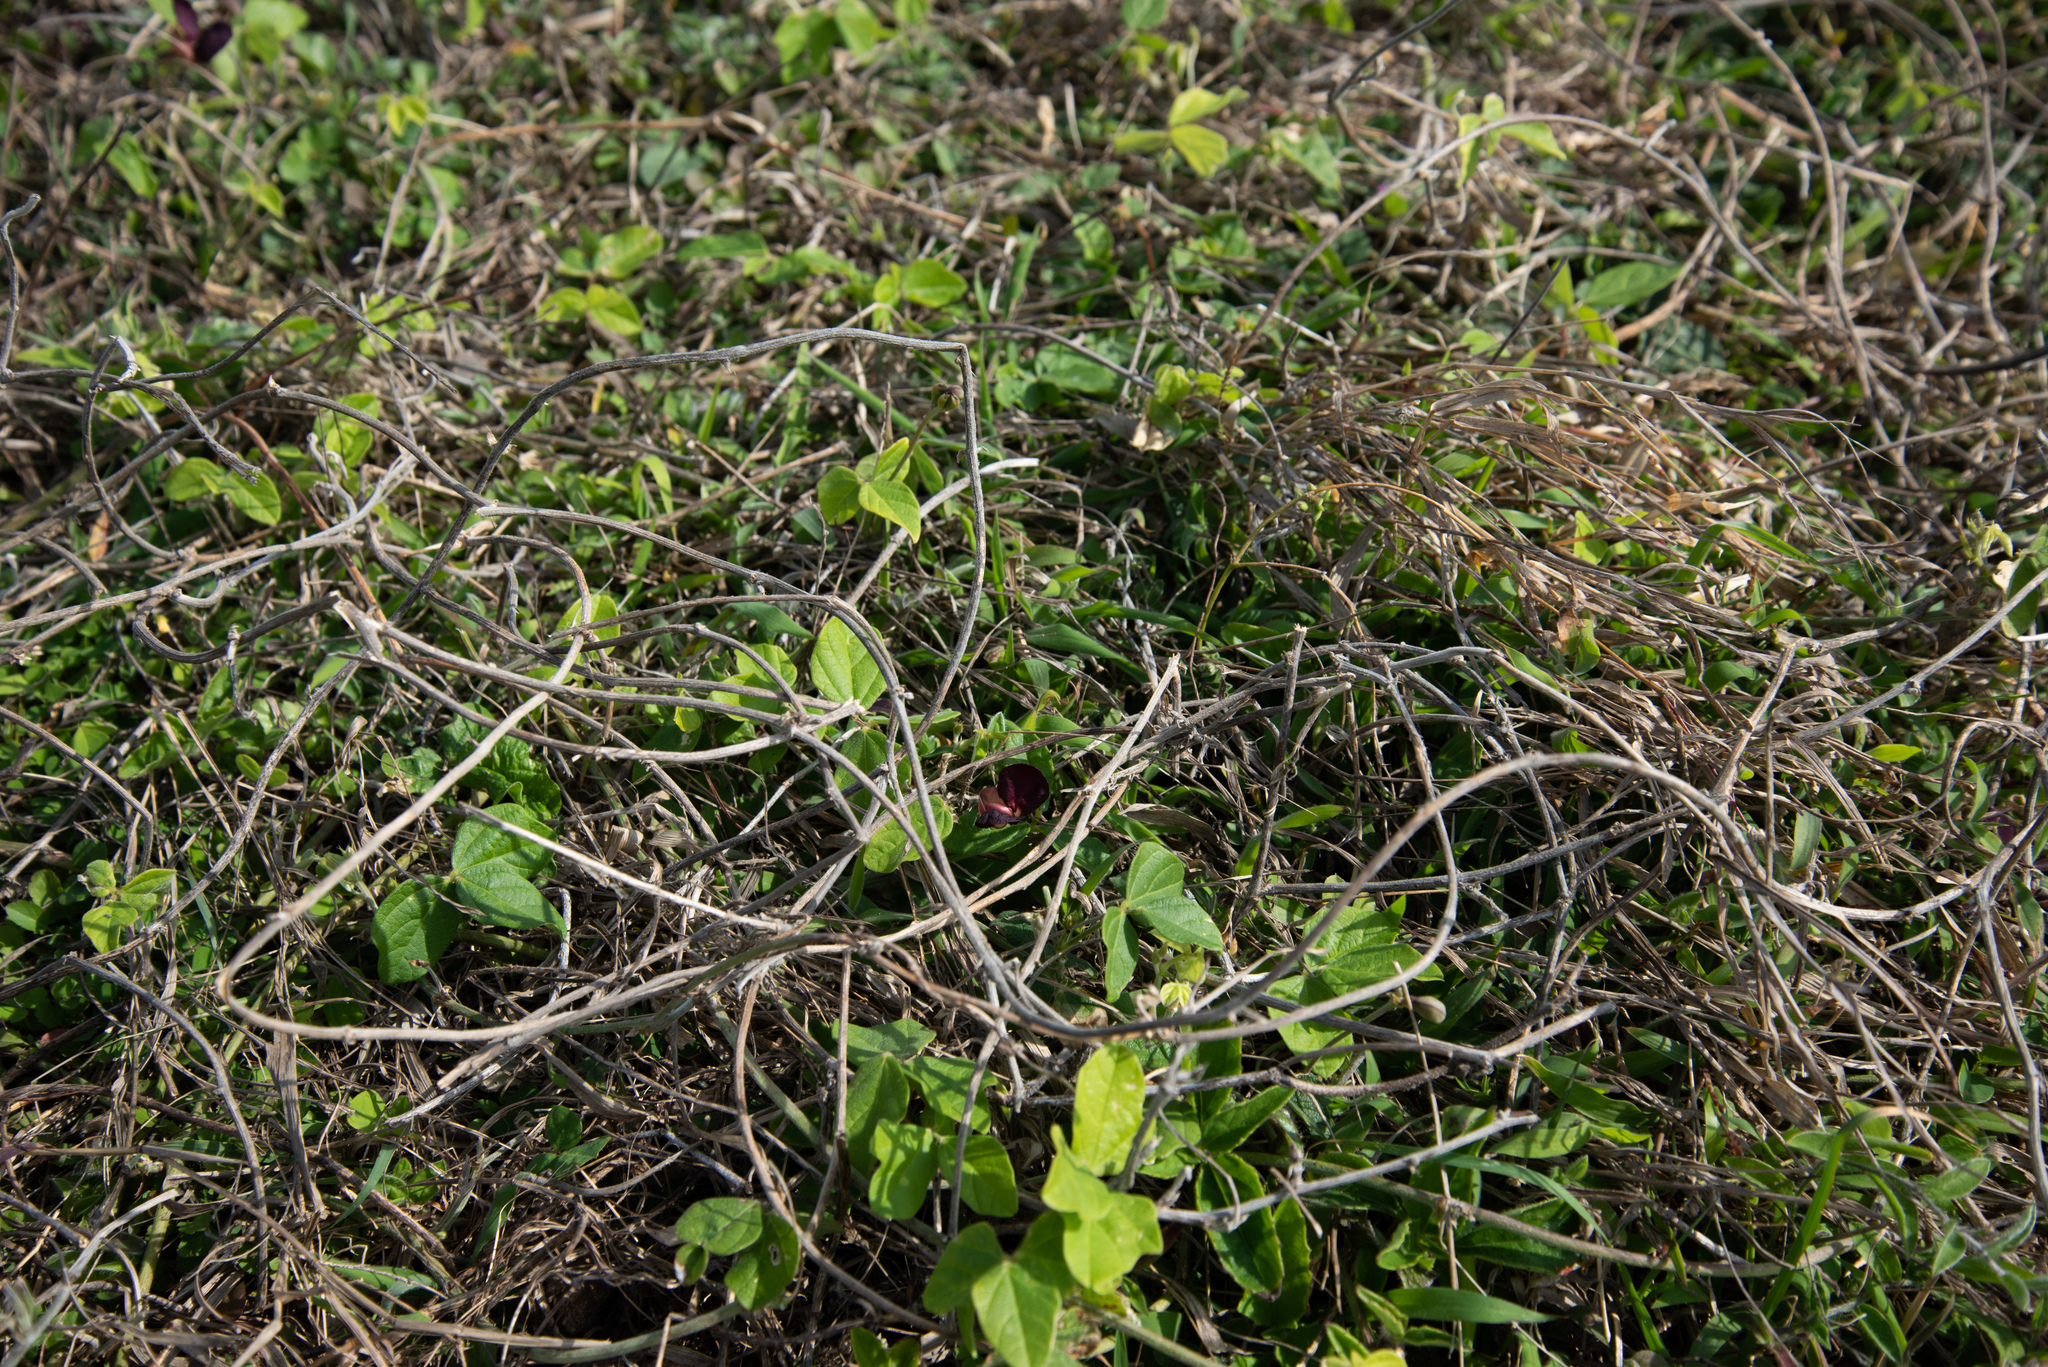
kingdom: Plantae
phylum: Tracheophyta
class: Magnoliopsida
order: Fabales
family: Fabaceae
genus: Macroptilium
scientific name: Macroptilium atropurpureum
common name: Purple bushbean
